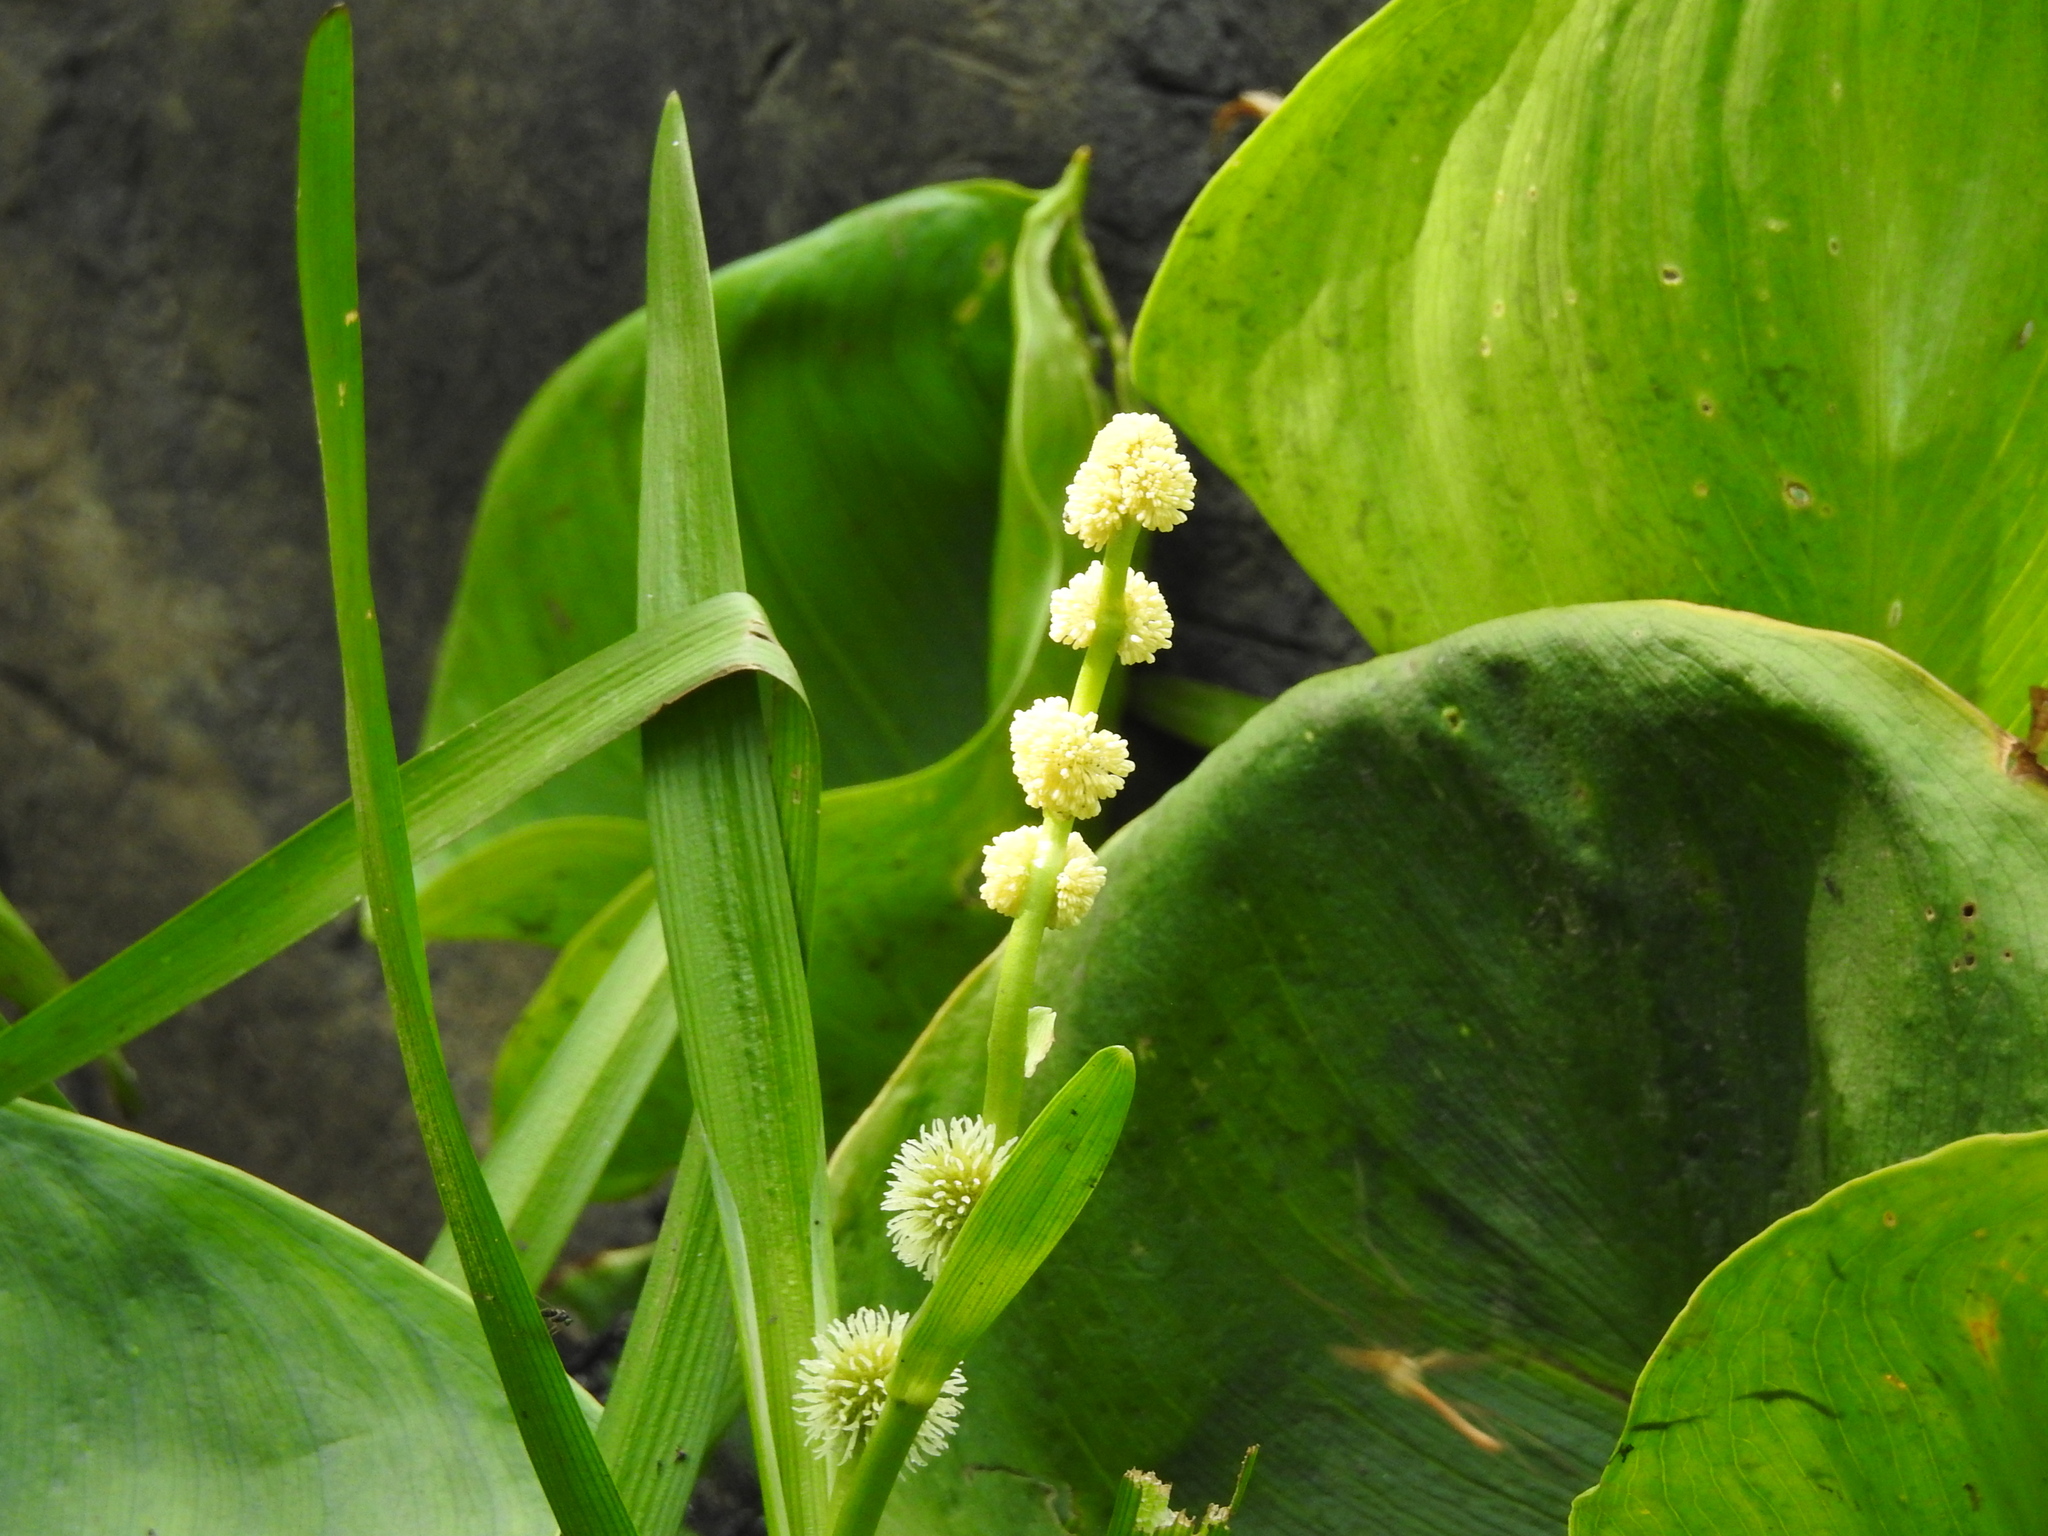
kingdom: Plantae
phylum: Tracheophyta
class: Liliopsida
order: Poales
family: Typhaceae
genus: Sparganium
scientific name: Sparganium emersum
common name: Unbranched bur-reed
